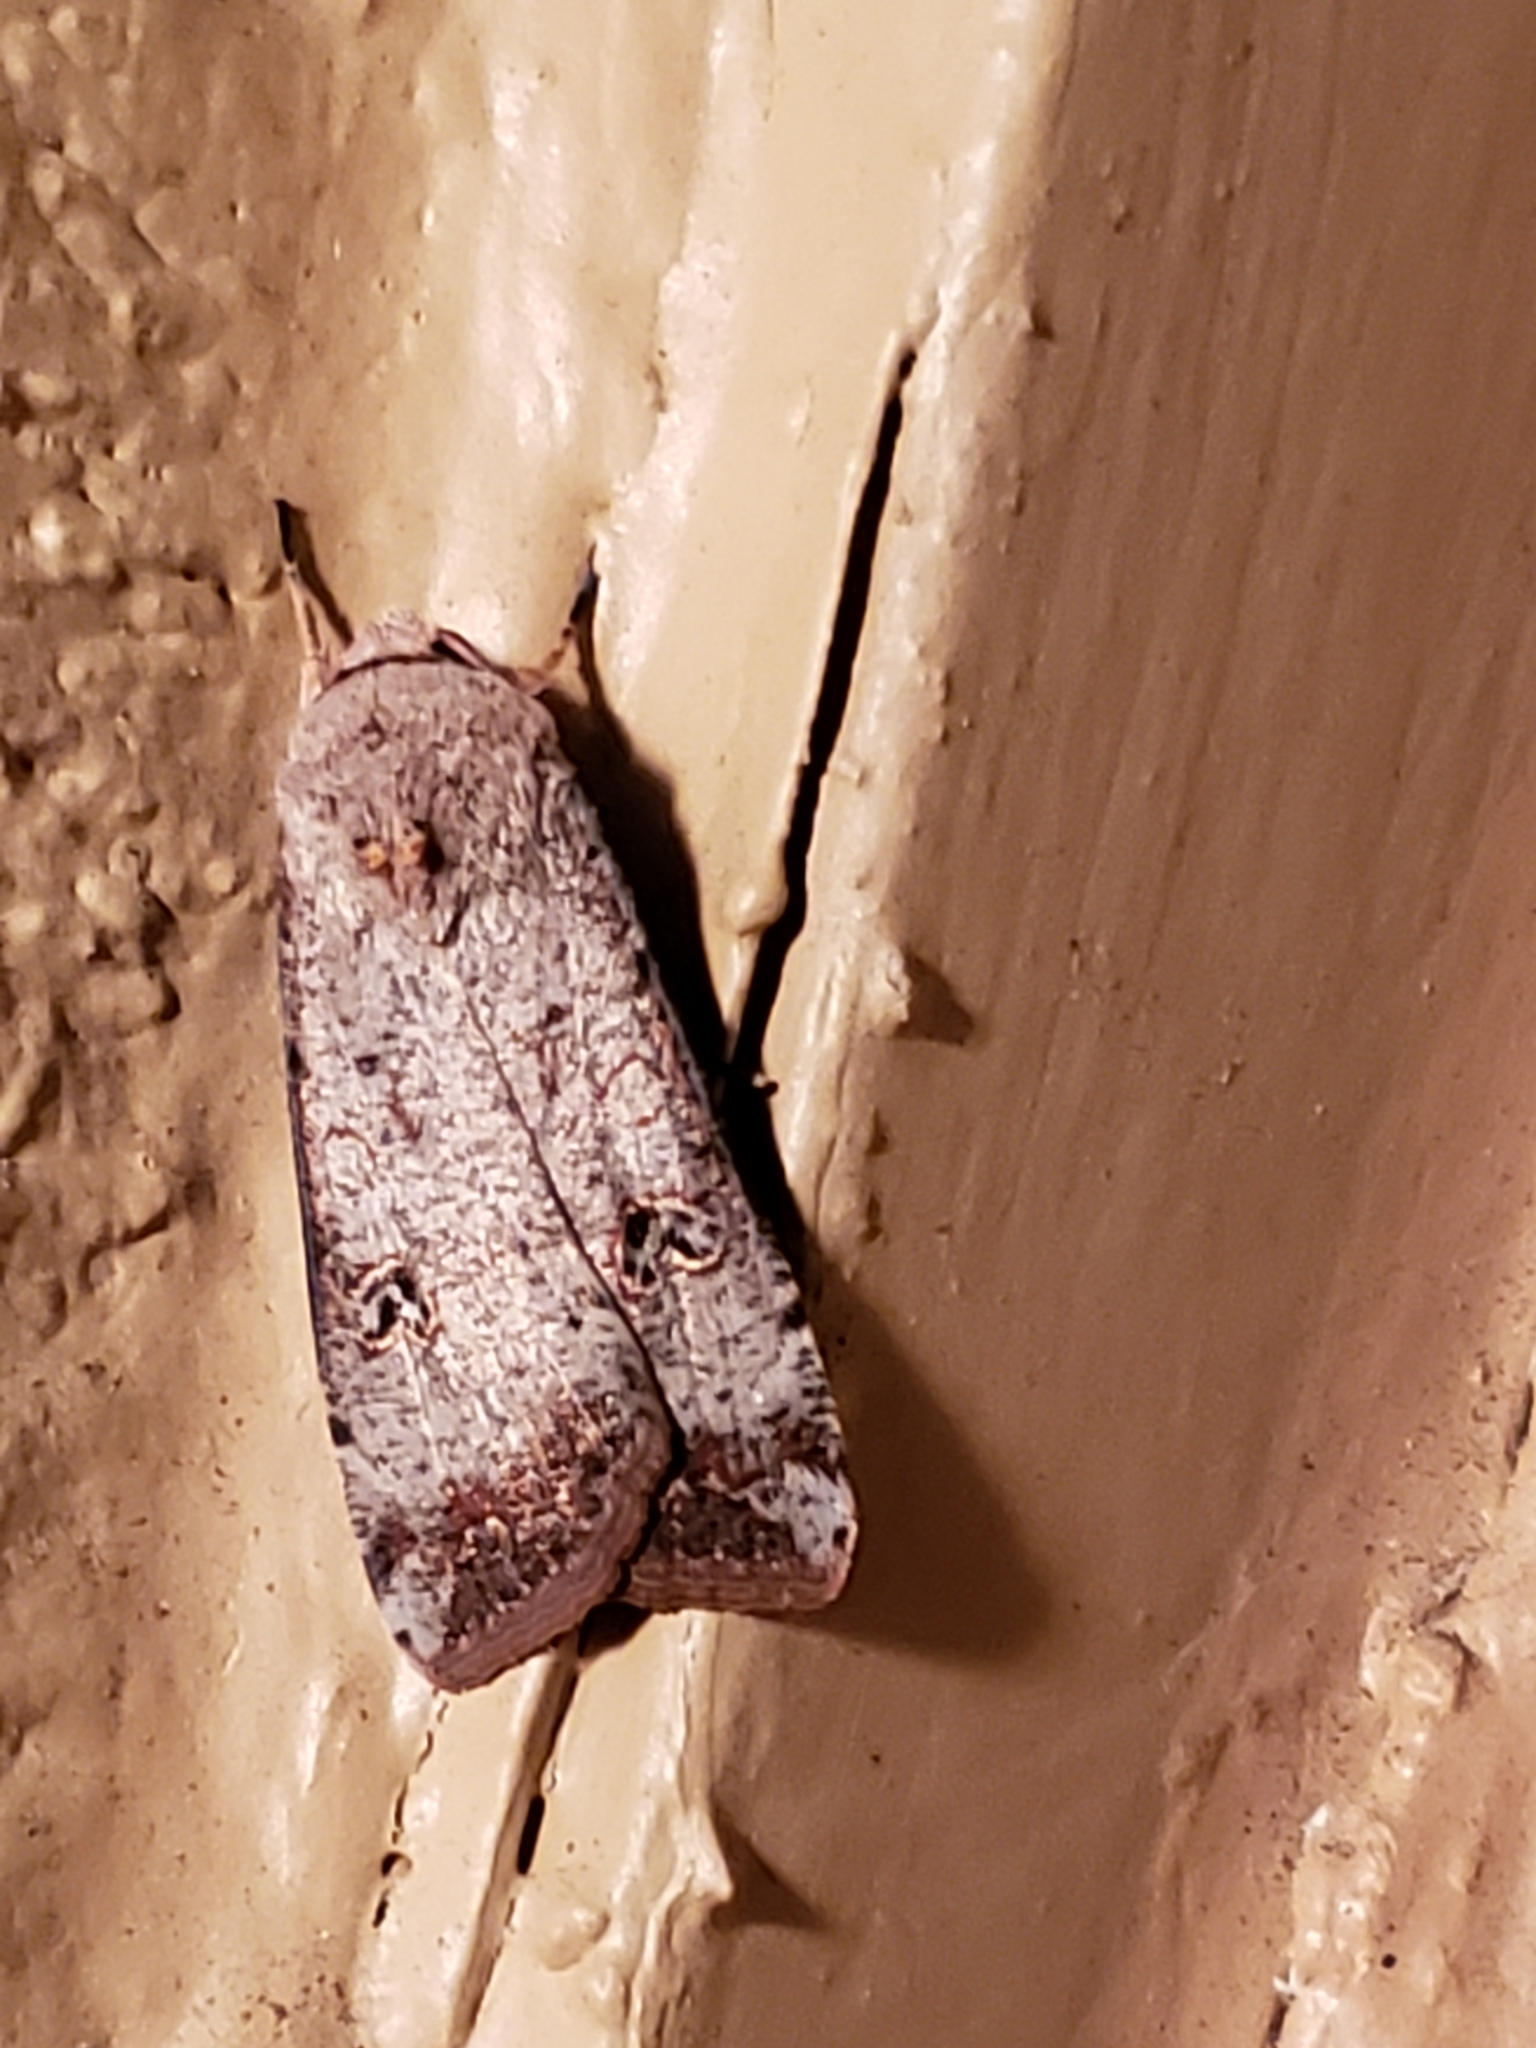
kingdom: Animalia
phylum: Arthropoda
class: Insecta
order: Lepidoptera
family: Noctuidae
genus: Anicla
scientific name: Anicla infecta
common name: Green cutworm
